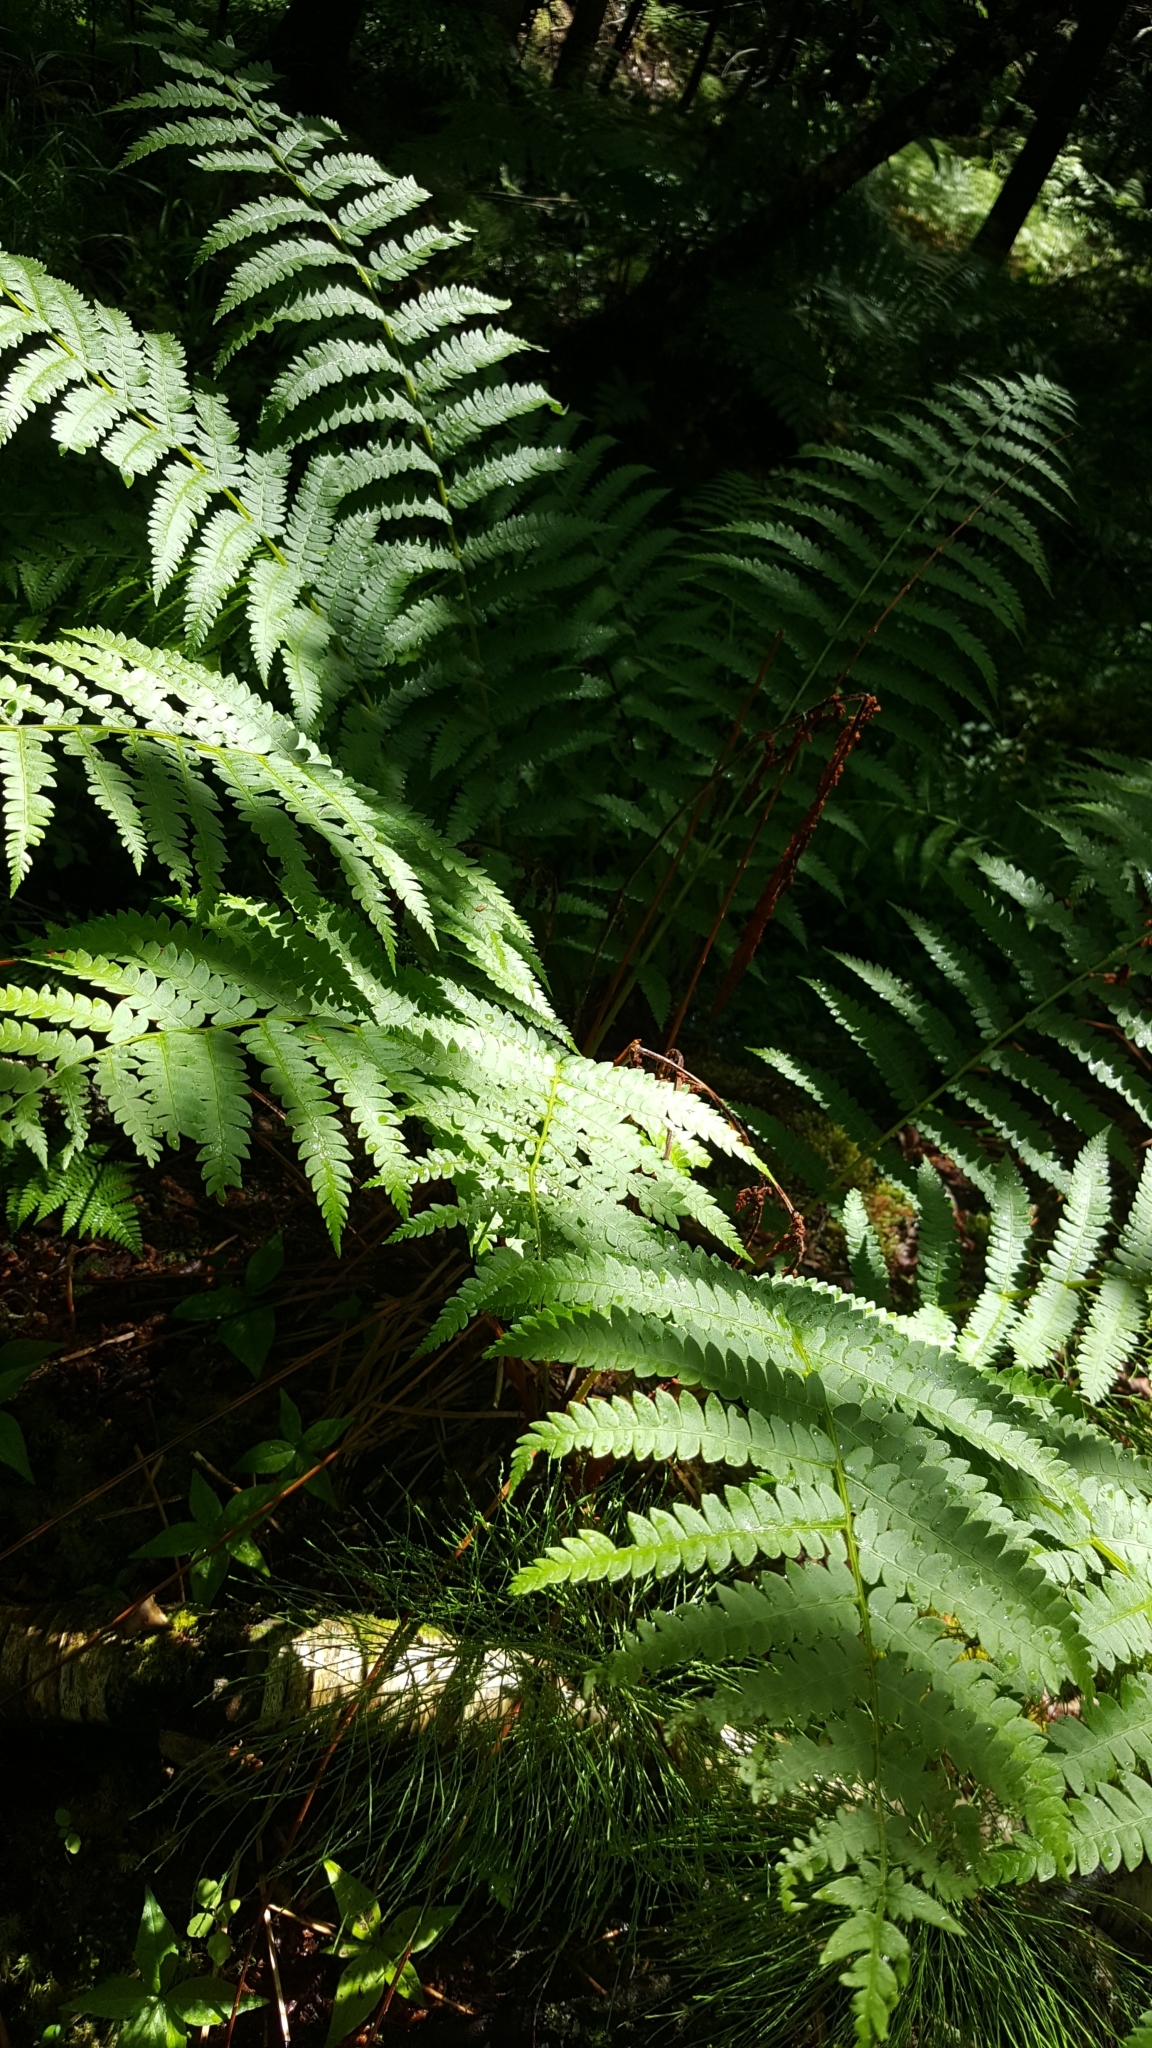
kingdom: Plantae
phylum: Tracheophyta
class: Polypodiopsida
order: Osmundales
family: Osmundaceae
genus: Osmundastrum
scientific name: Osmundastrum cinnamomeum
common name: Cinnamon fern
